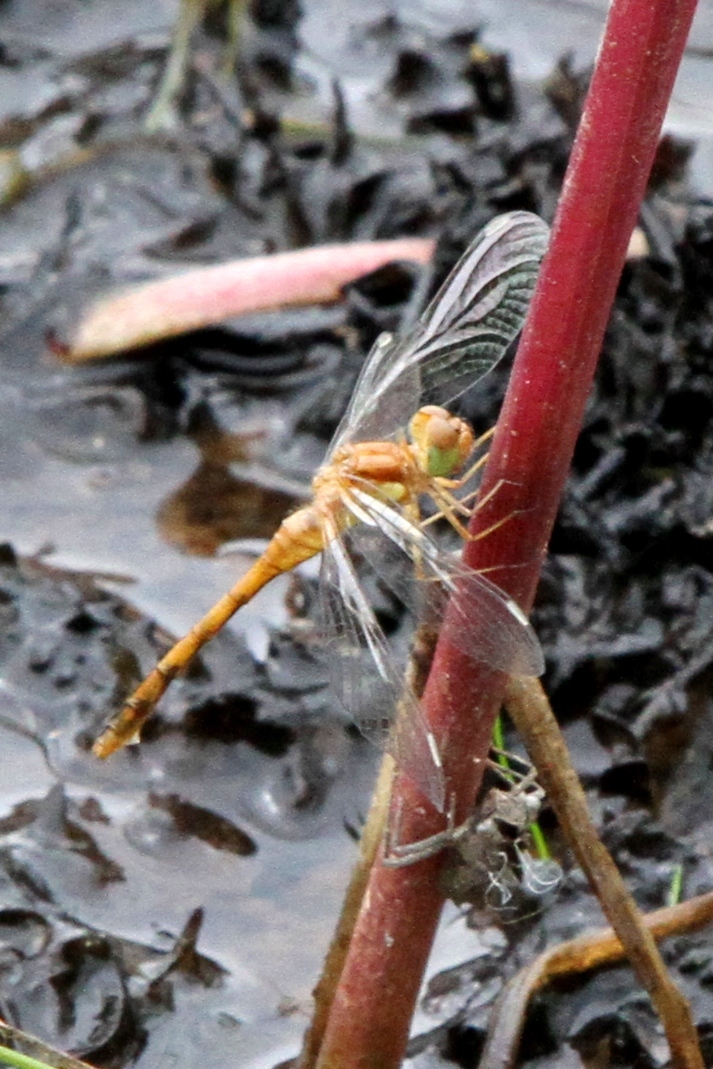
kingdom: Animalia
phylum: Arthropoda
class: Insecta
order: Odonata
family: Libellulidae
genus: Sympetrum
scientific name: Sympetrum vicinum
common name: Autumn meadowhawk
